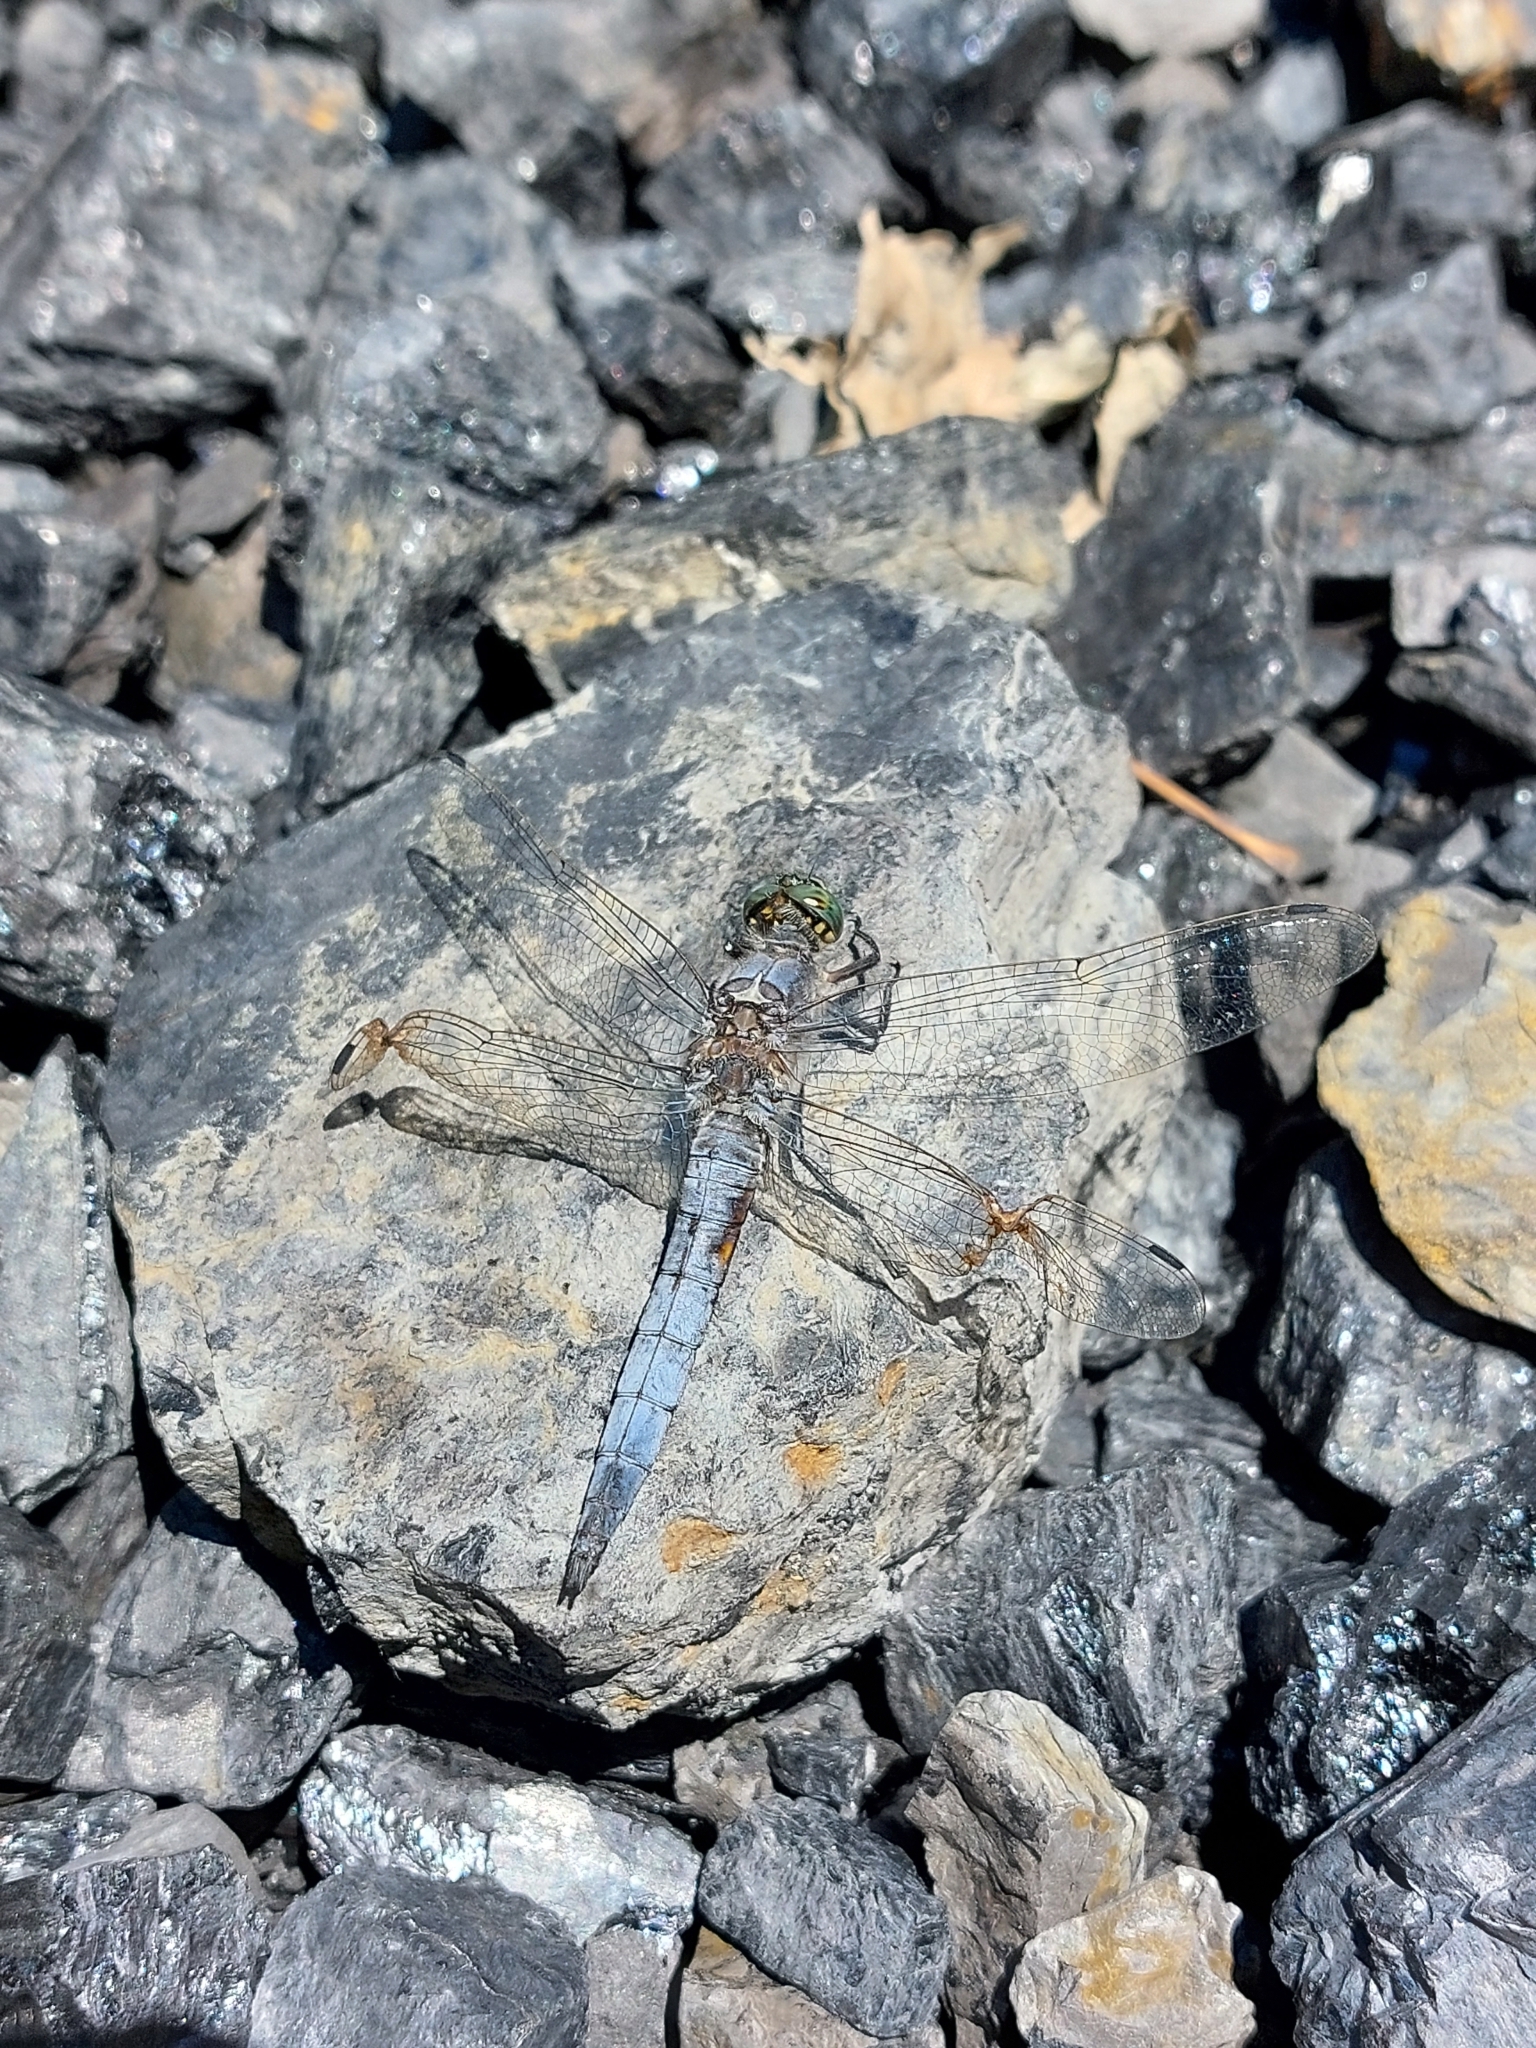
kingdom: Animalia
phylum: Arthropoda
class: Insecta
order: Odonata
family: Libellulidae
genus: Orthetrum
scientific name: Orthetrum cancellatum
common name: Black-tailed skimmer
